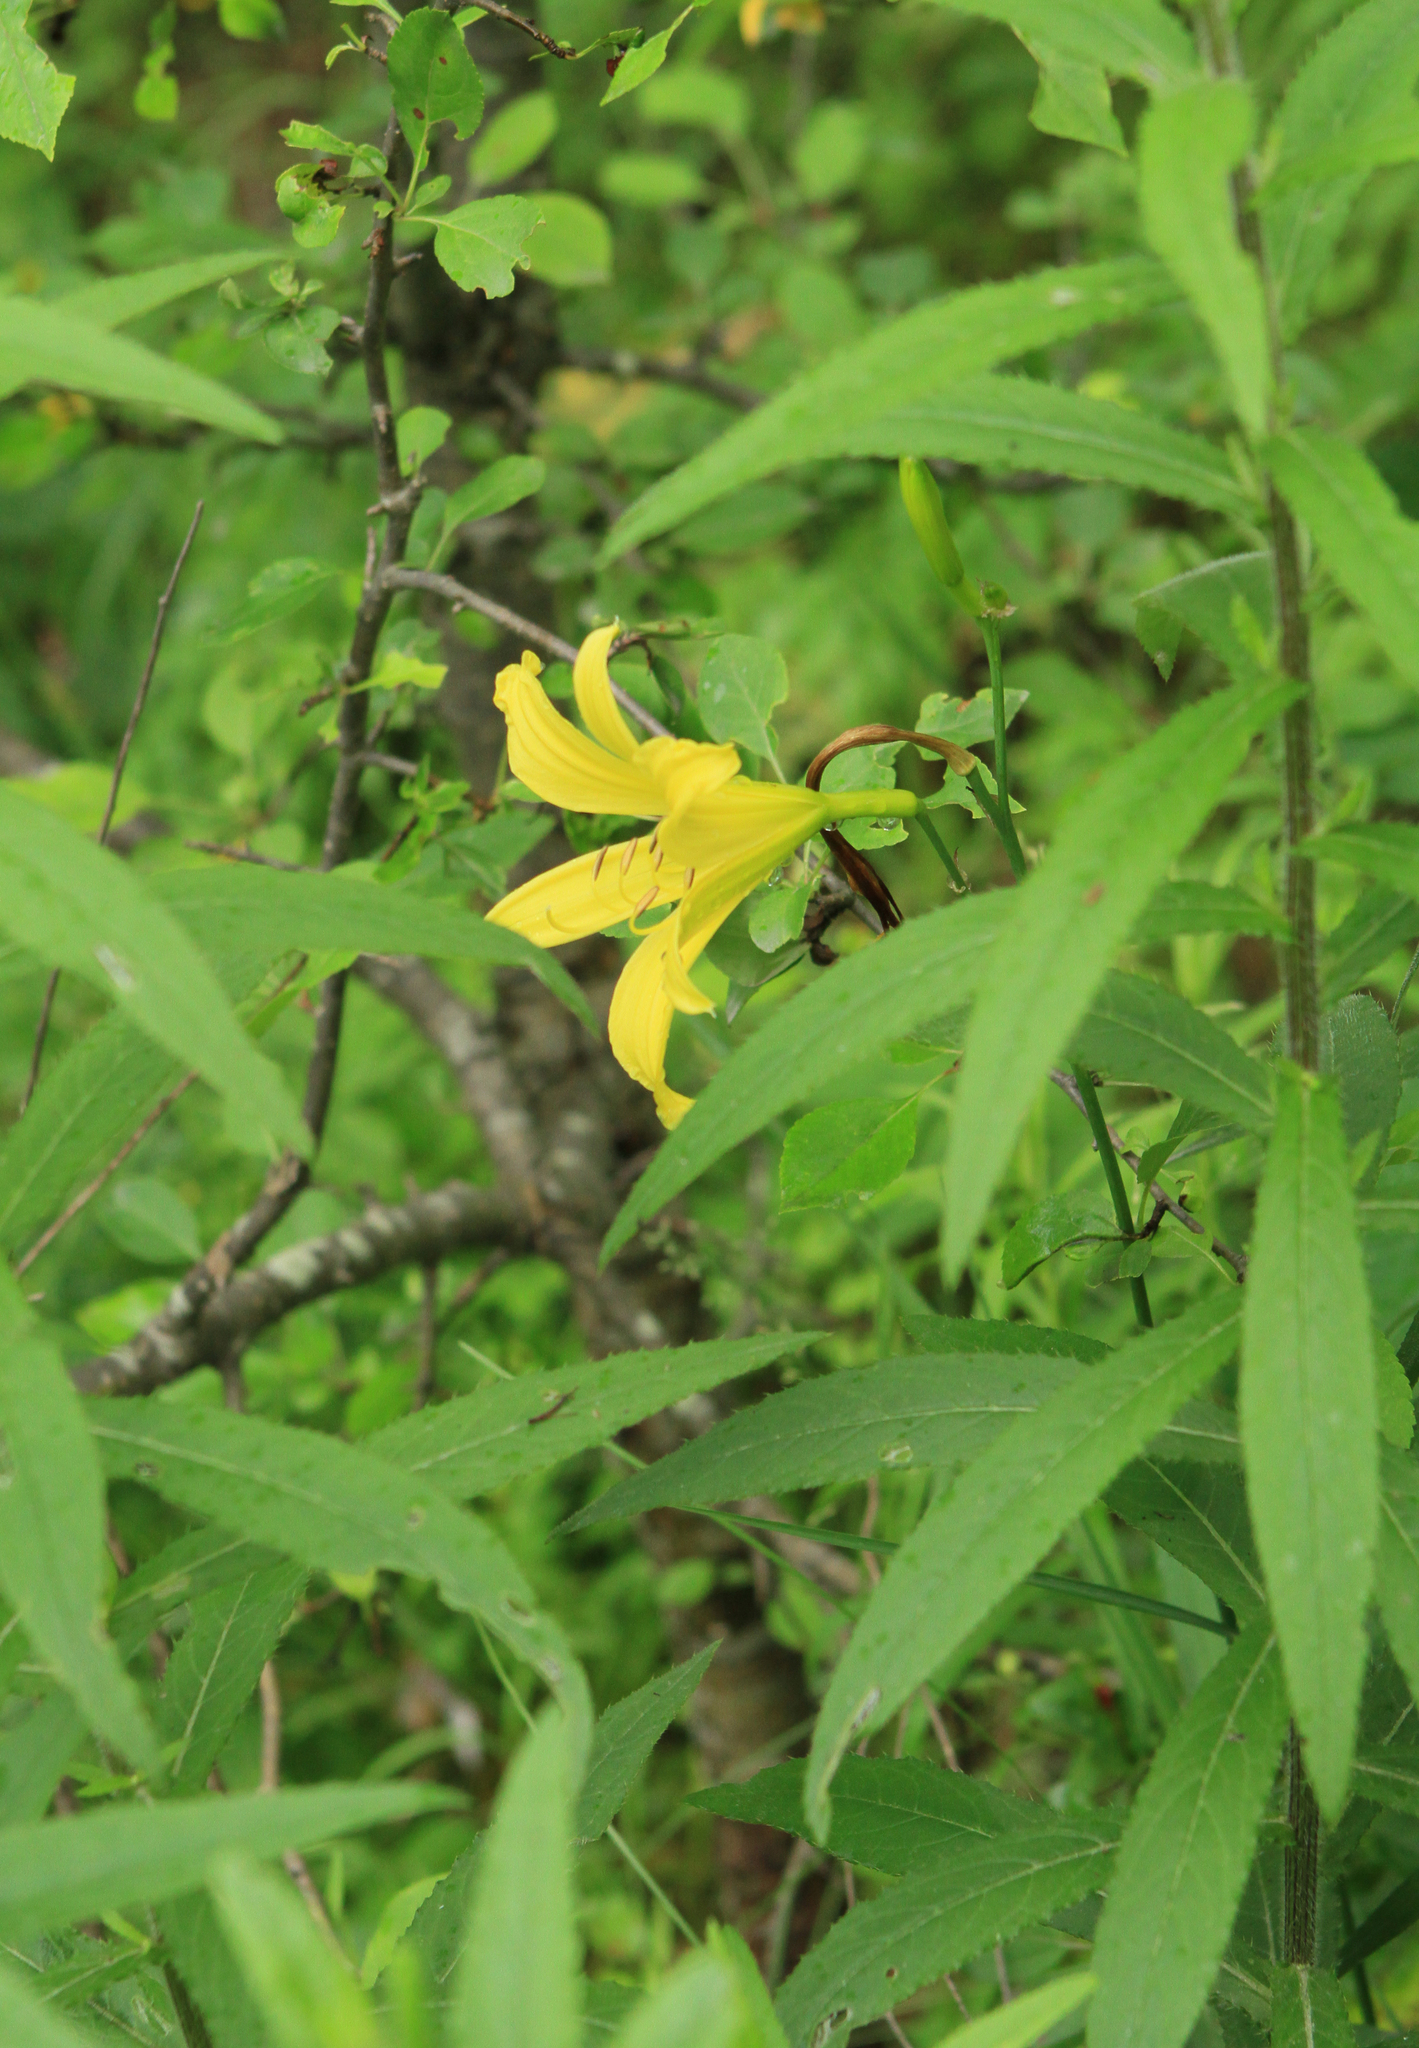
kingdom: Plantae
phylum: Tracheophyta
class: Liliopsida
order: Asparagales
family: Asphodelaceae
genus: Hemerocallis
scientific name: Hemerocallis minor
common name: Small daylily
